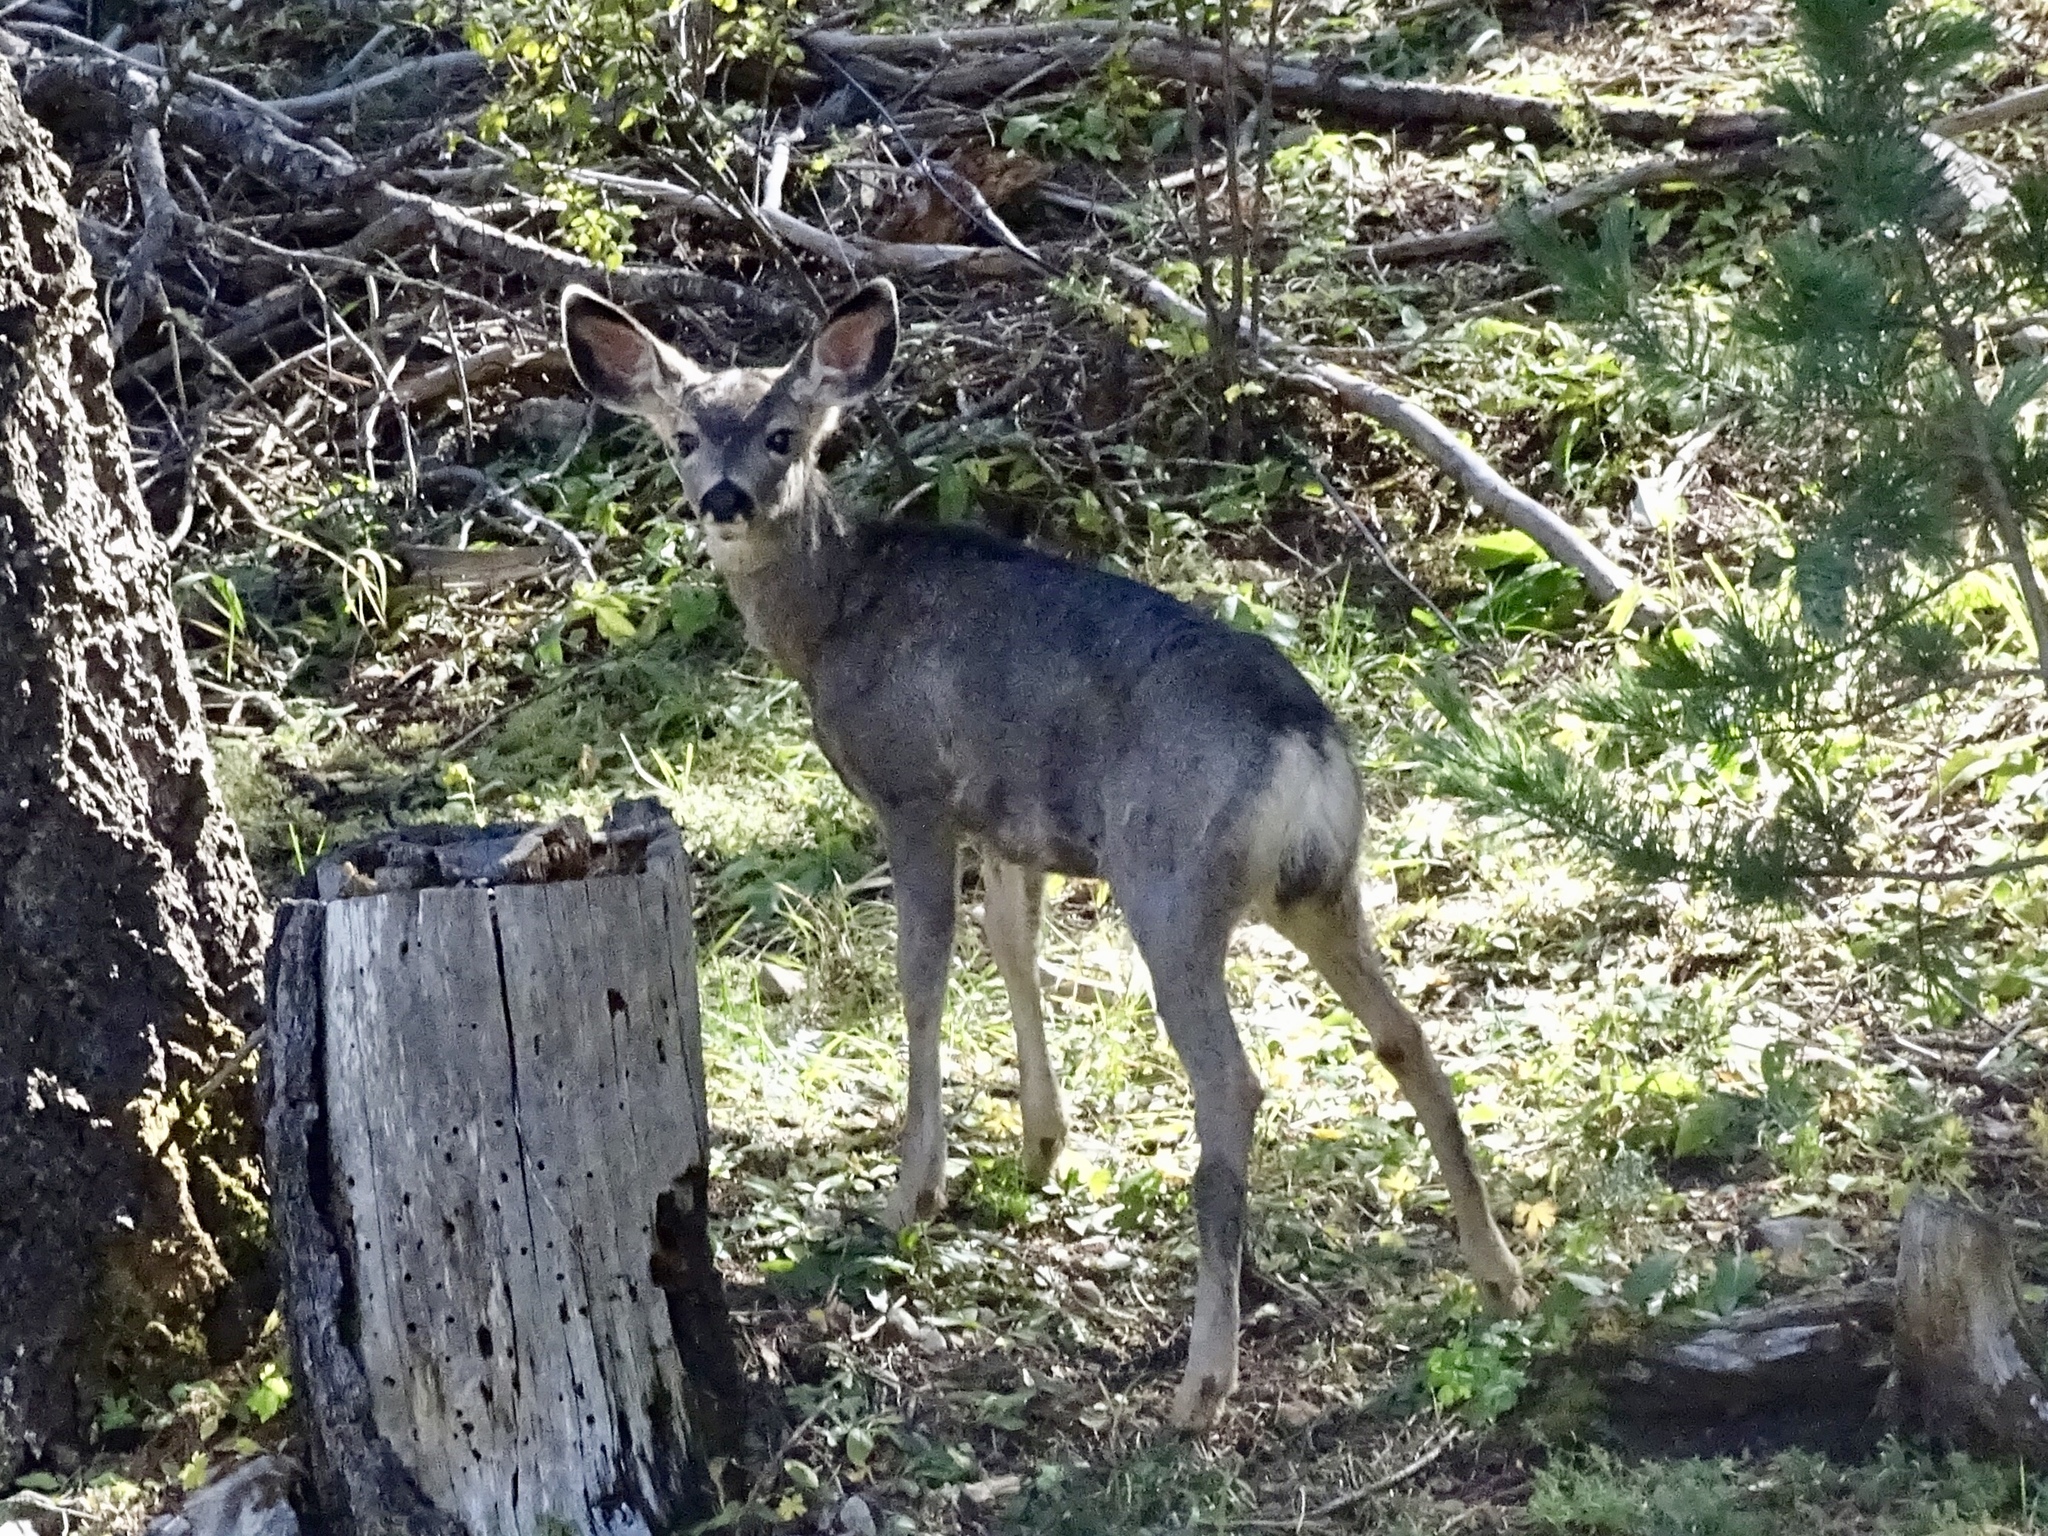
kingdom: Animalia
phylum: Chordata
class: Mammalia
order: Artiodactyla
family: Cervidae
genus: Odocoileus
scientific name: Odocoileus hemionus
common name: Mule deer
